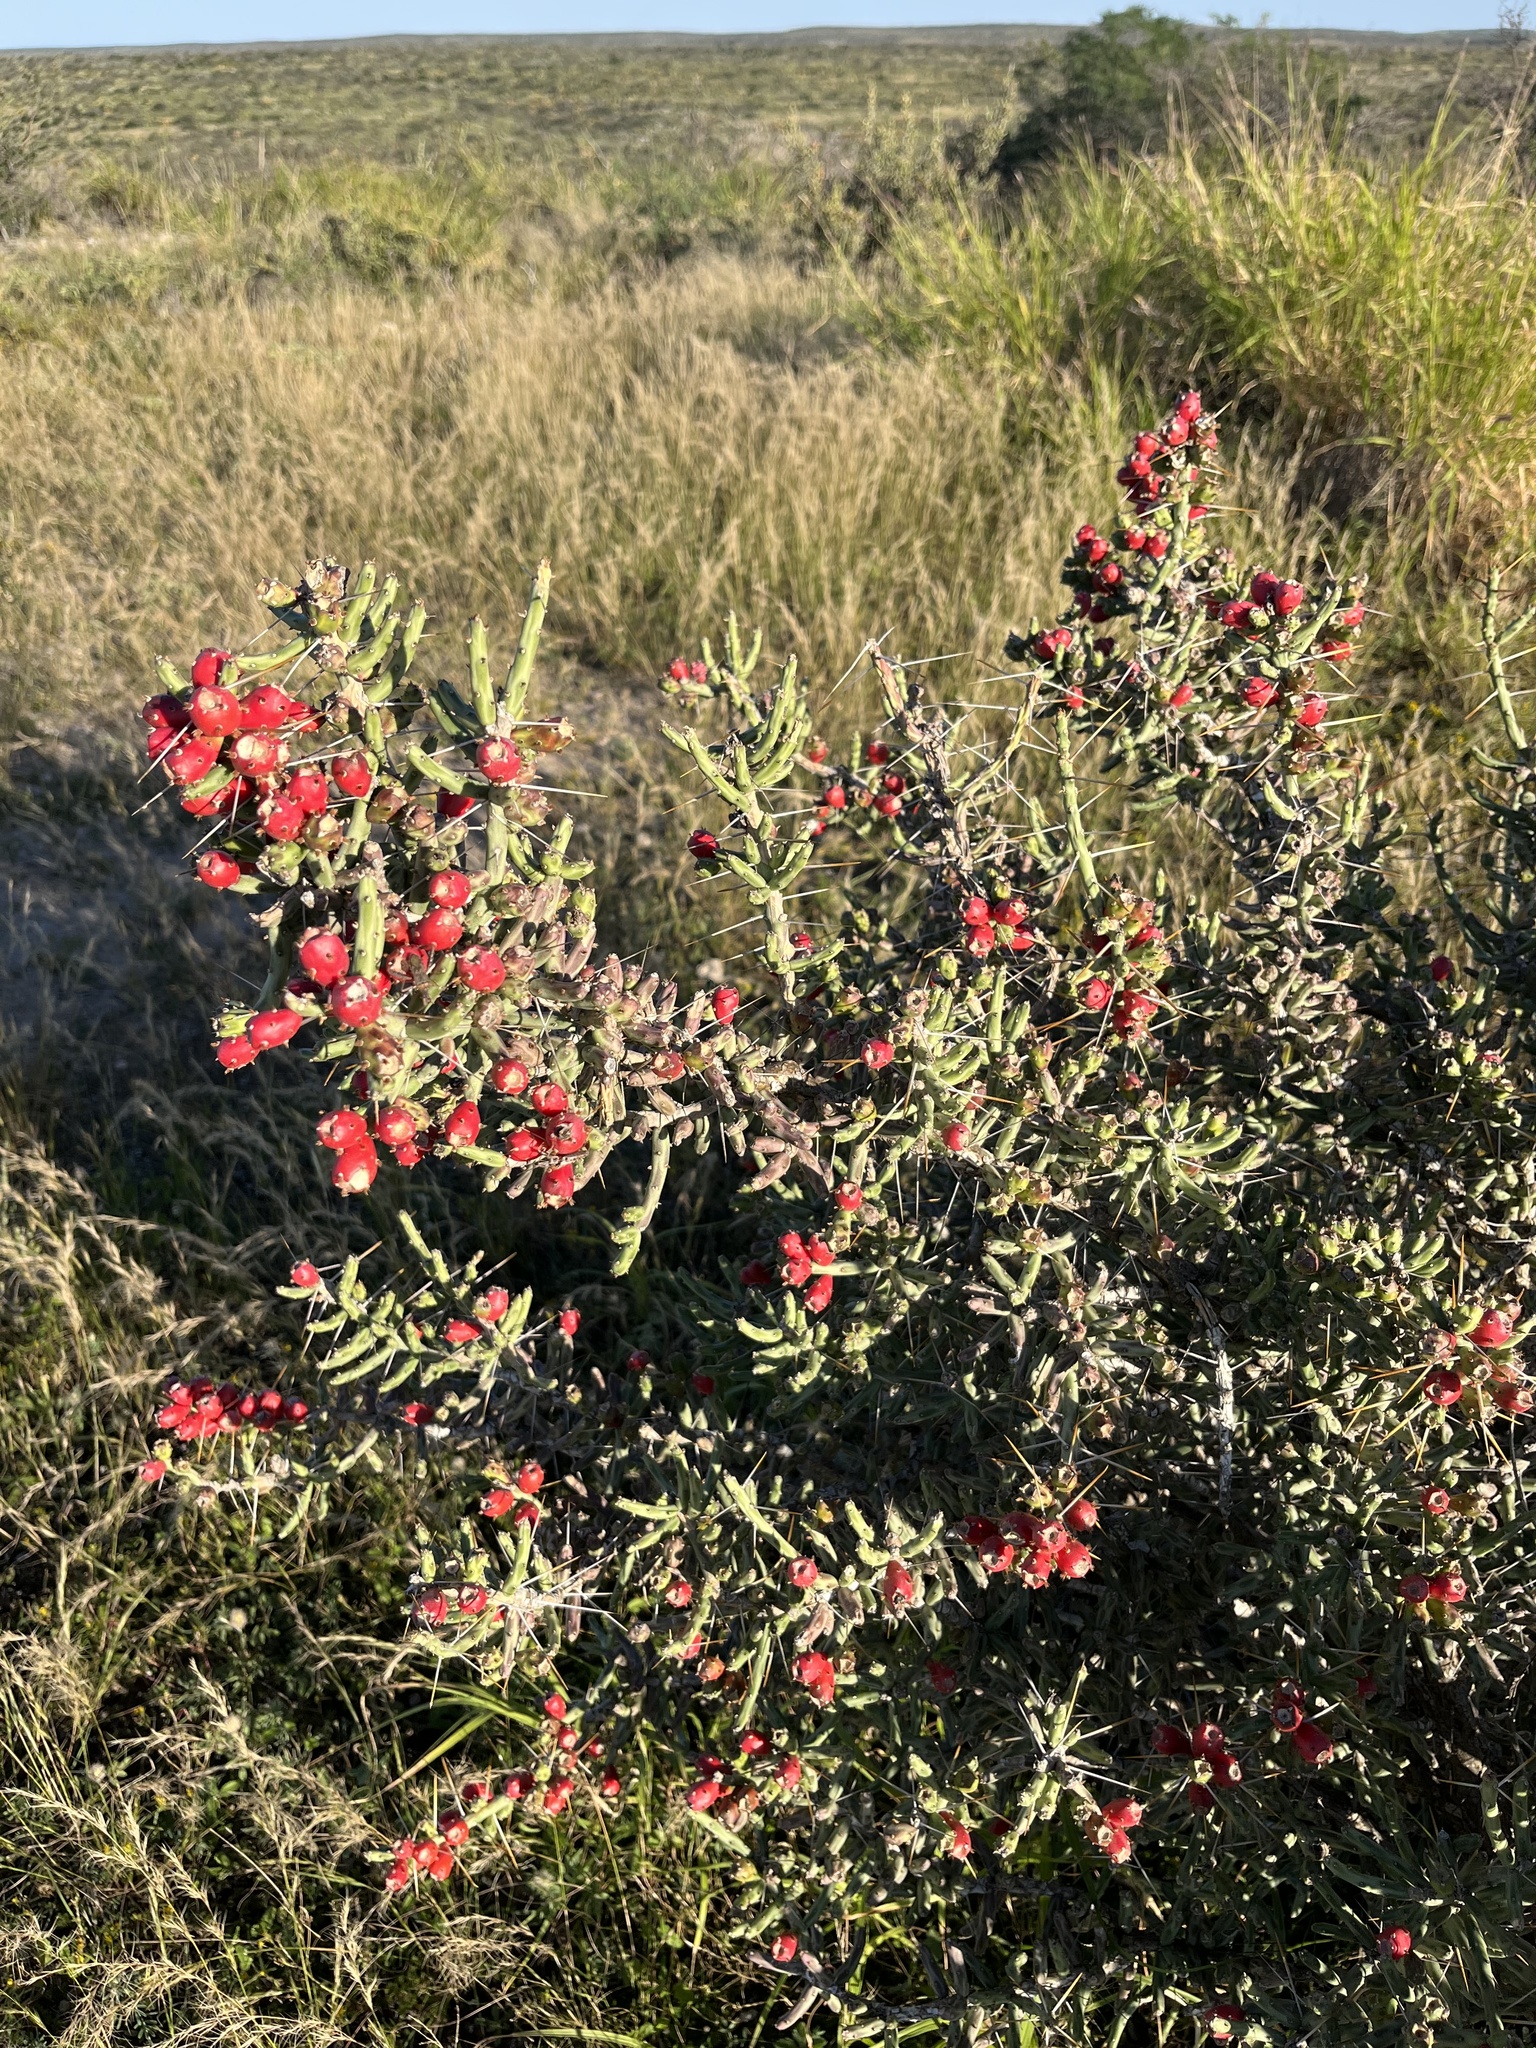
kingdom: Plantae
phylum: Tracheophyta
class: Magnoliopsida
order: Caryophyllales
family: Cactaceae
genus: Cylindropuntia
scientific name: Cylindropuntia leptocaulis
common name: Christmas cactus
